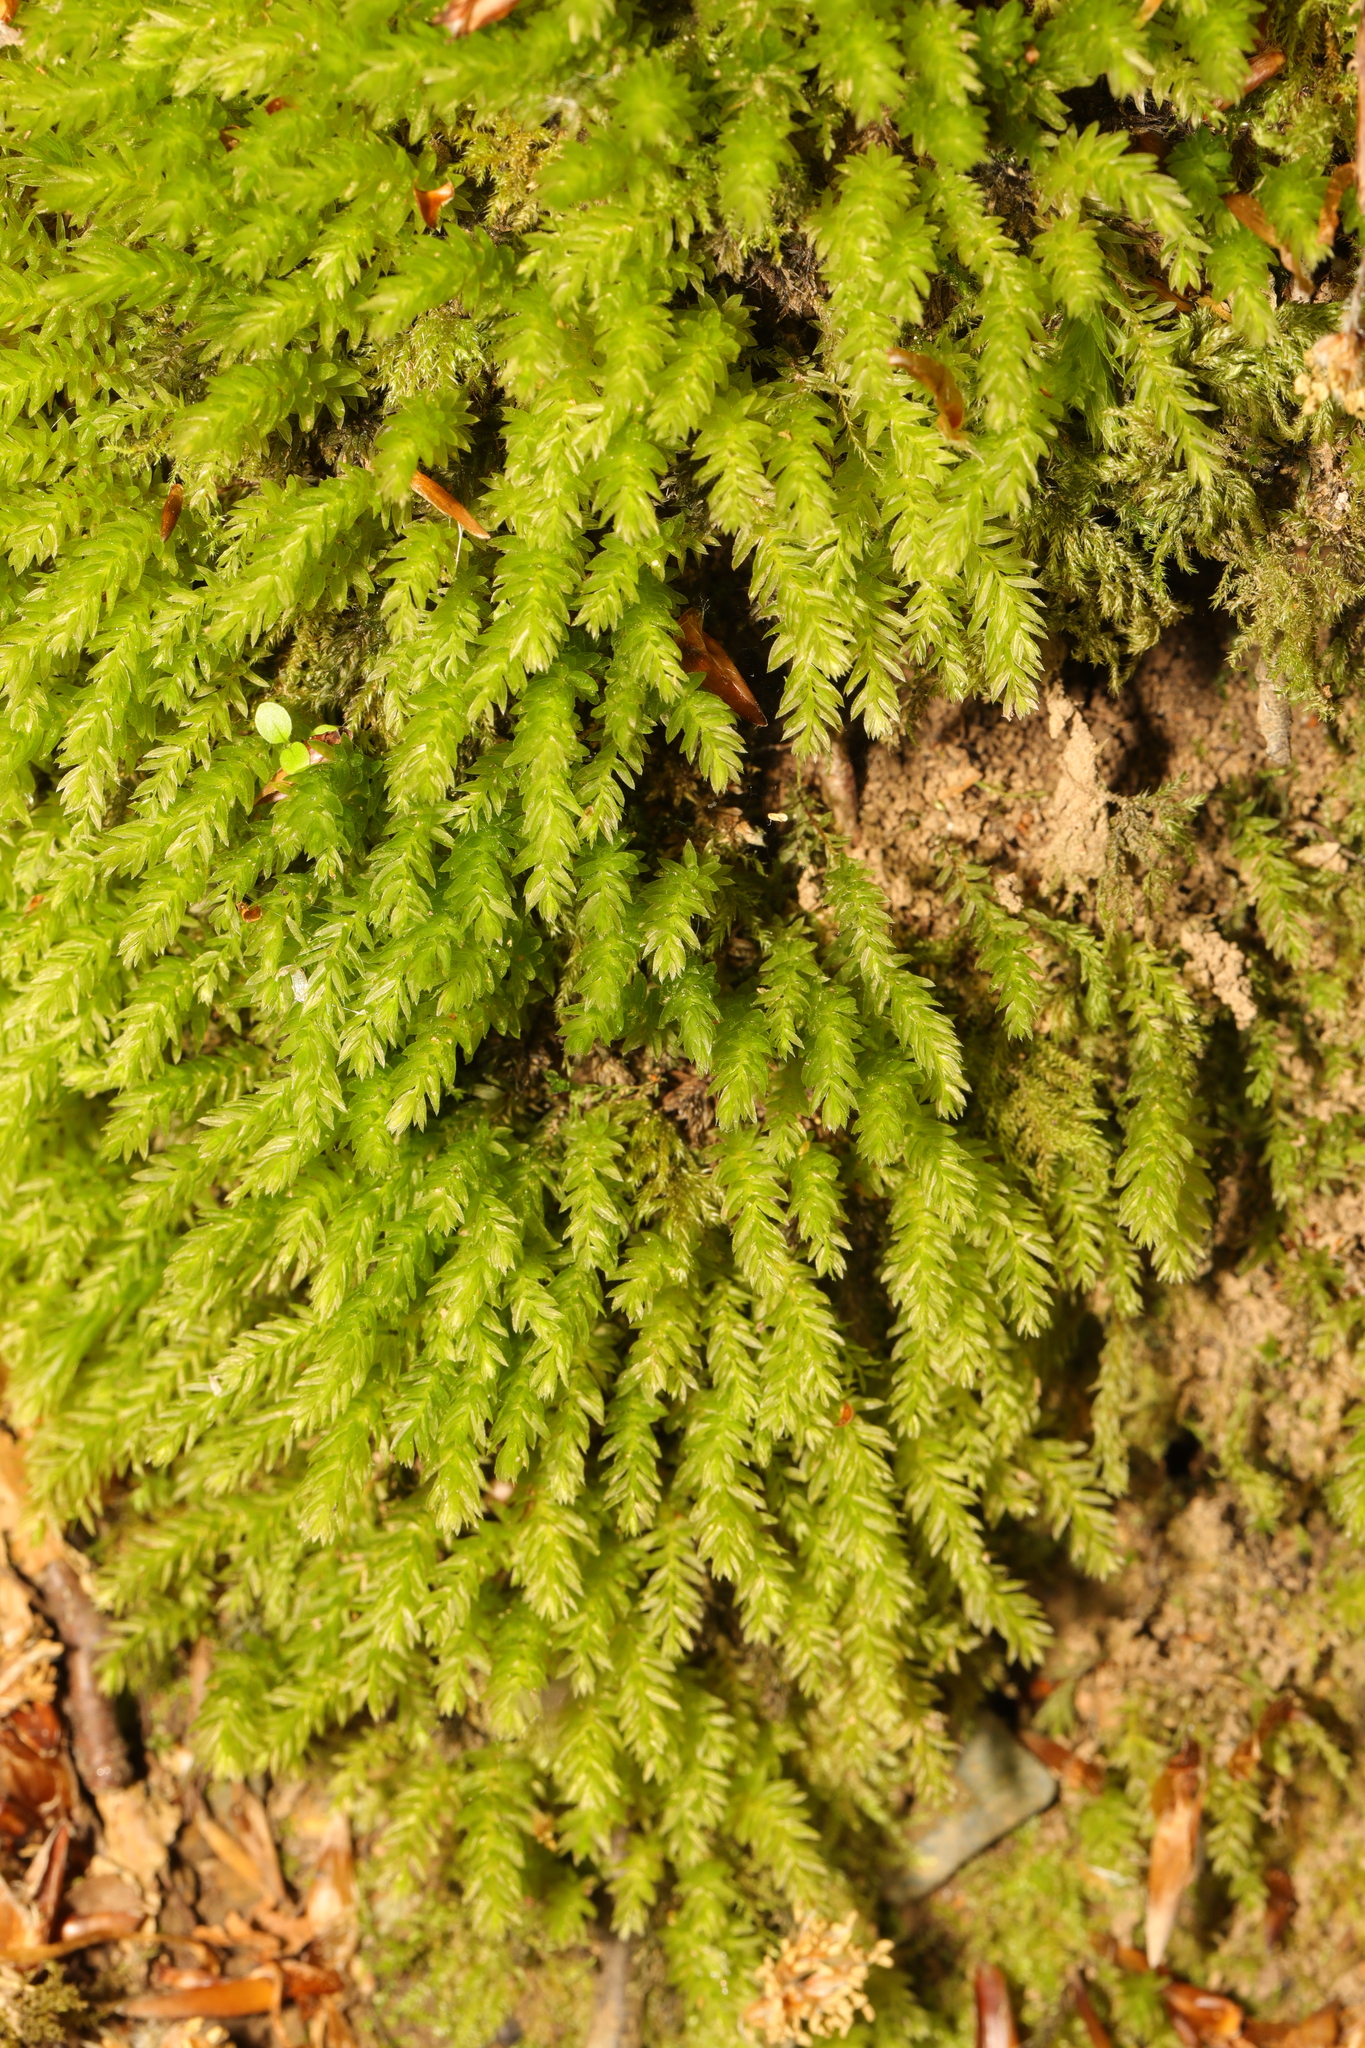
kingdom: Plantae
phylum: Bryophyta
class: Bryopsida
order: Bryales
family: Mniaceae
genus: Mnium
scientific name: Mnium hornum
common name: Swan's-neck leafy moss
